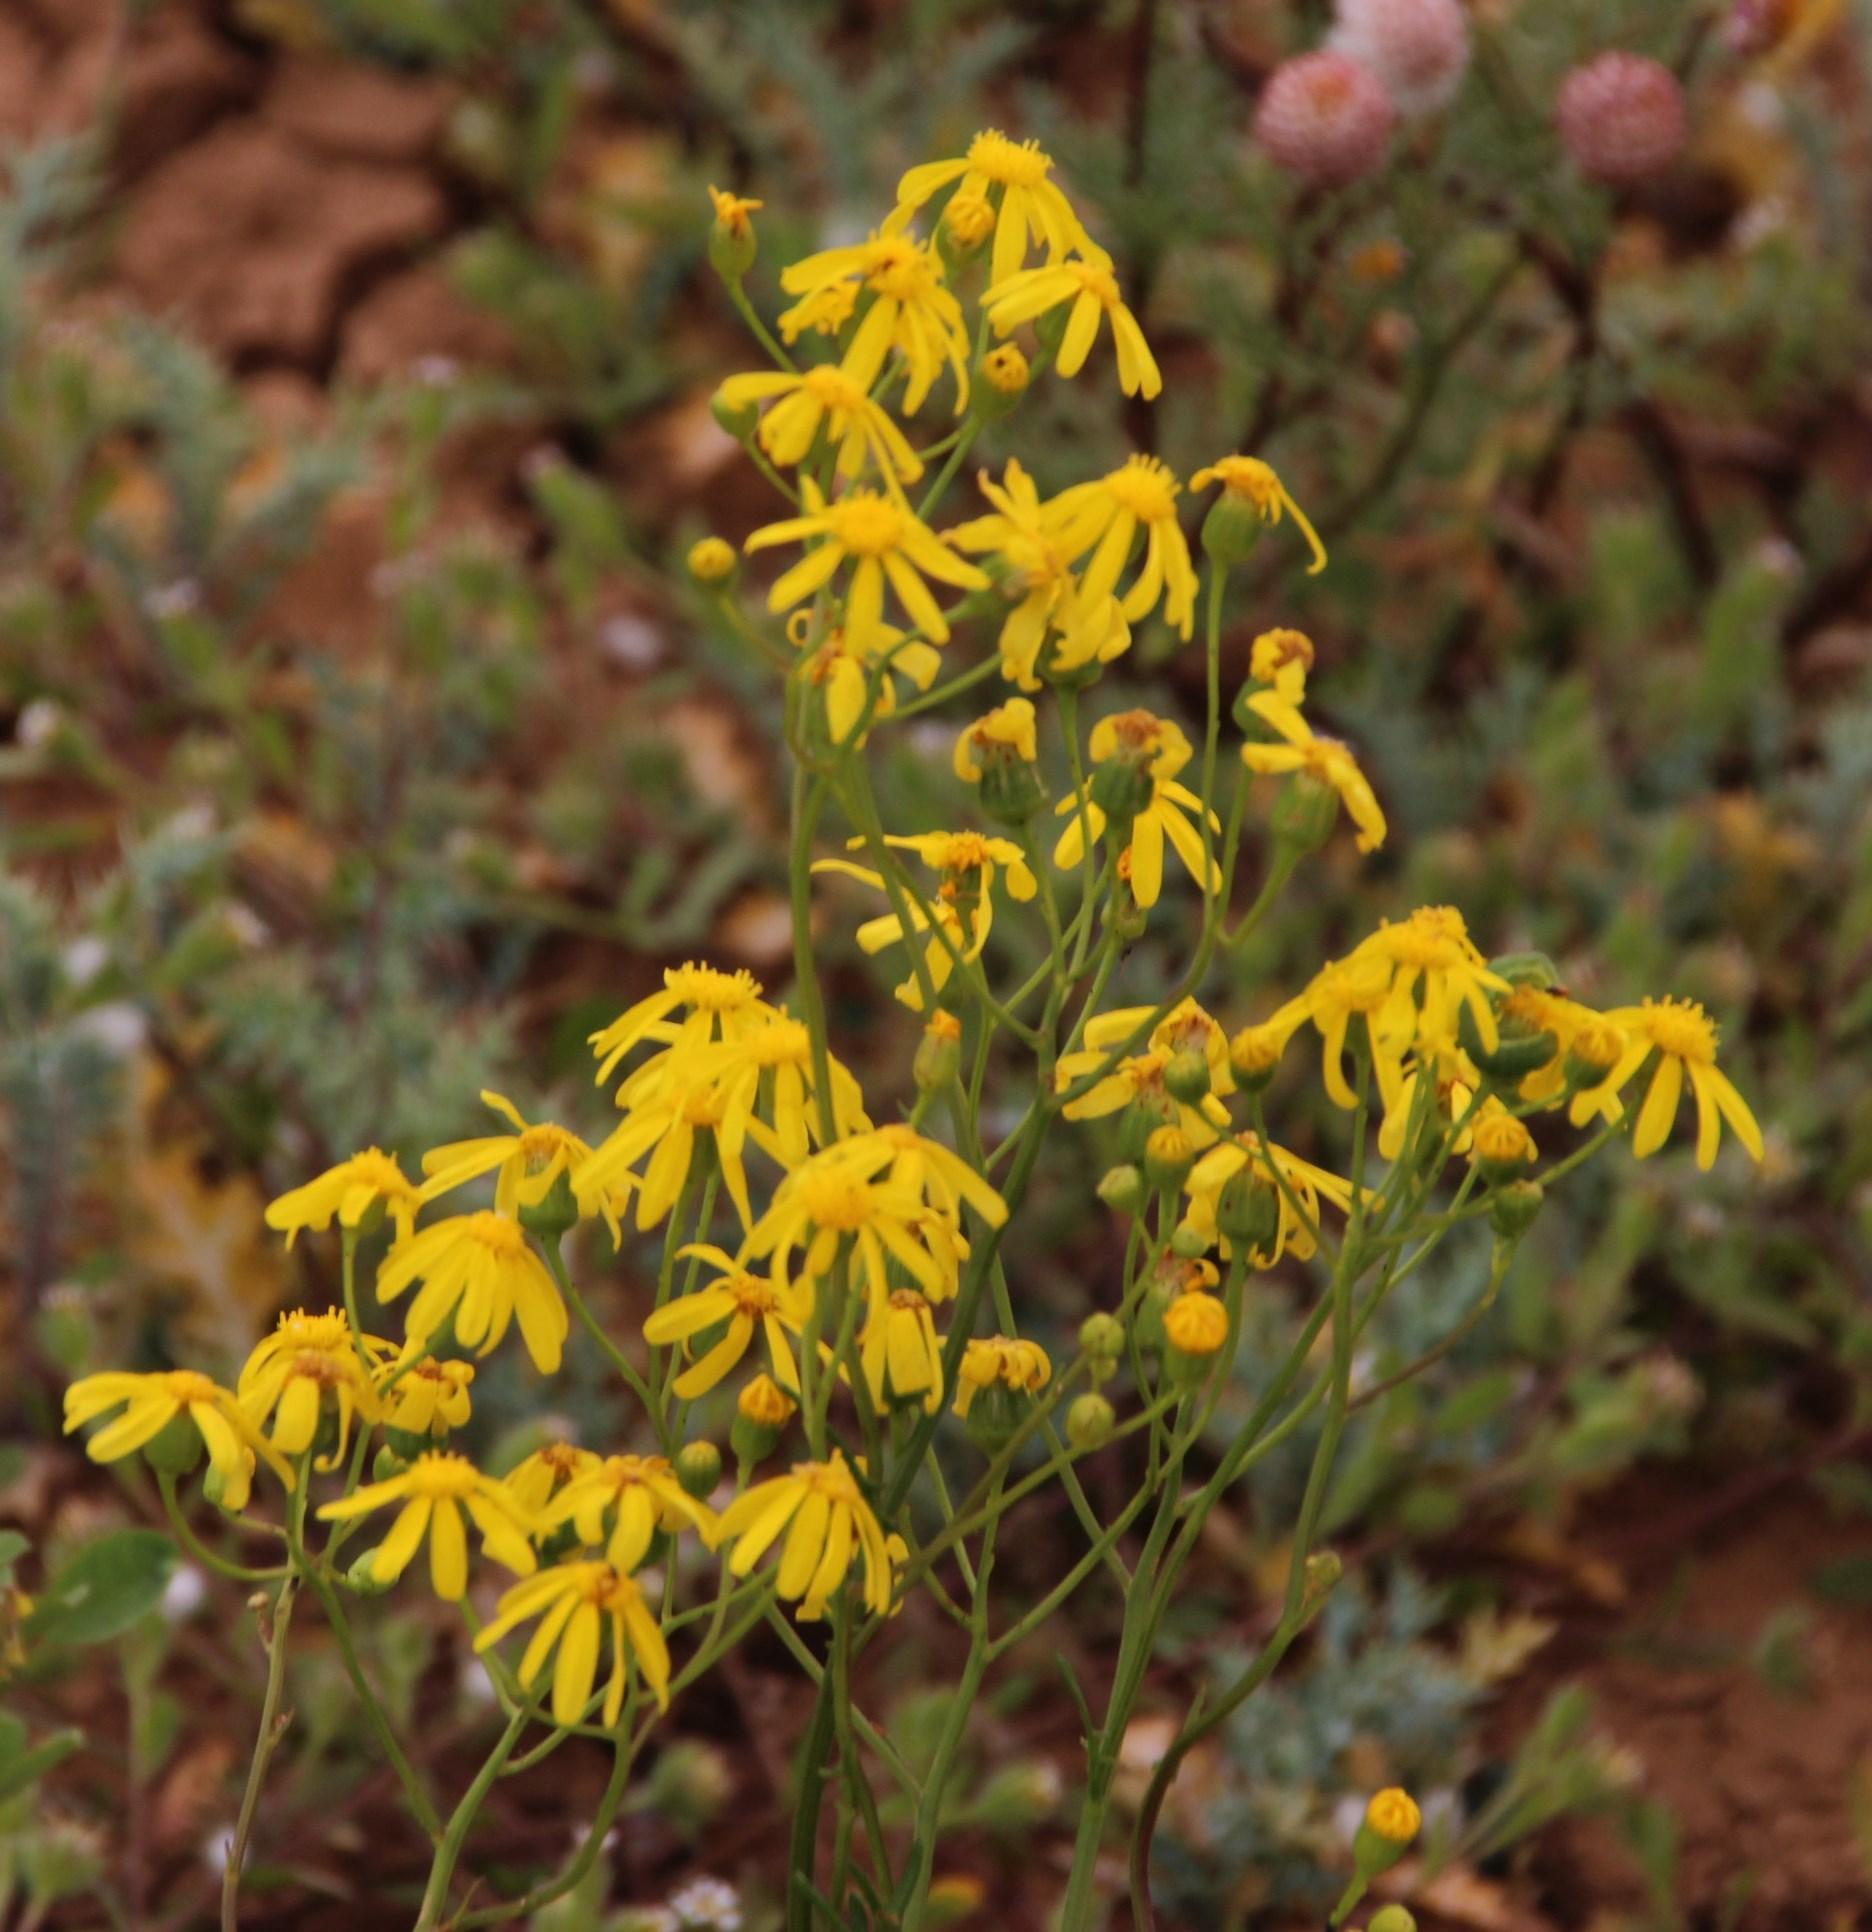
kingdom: Plantae
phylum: Tracheophyta
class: Magnoliopsida
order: Asterales
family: Asteraceae
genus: Senecio
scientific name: Senecio cardaminifolius
